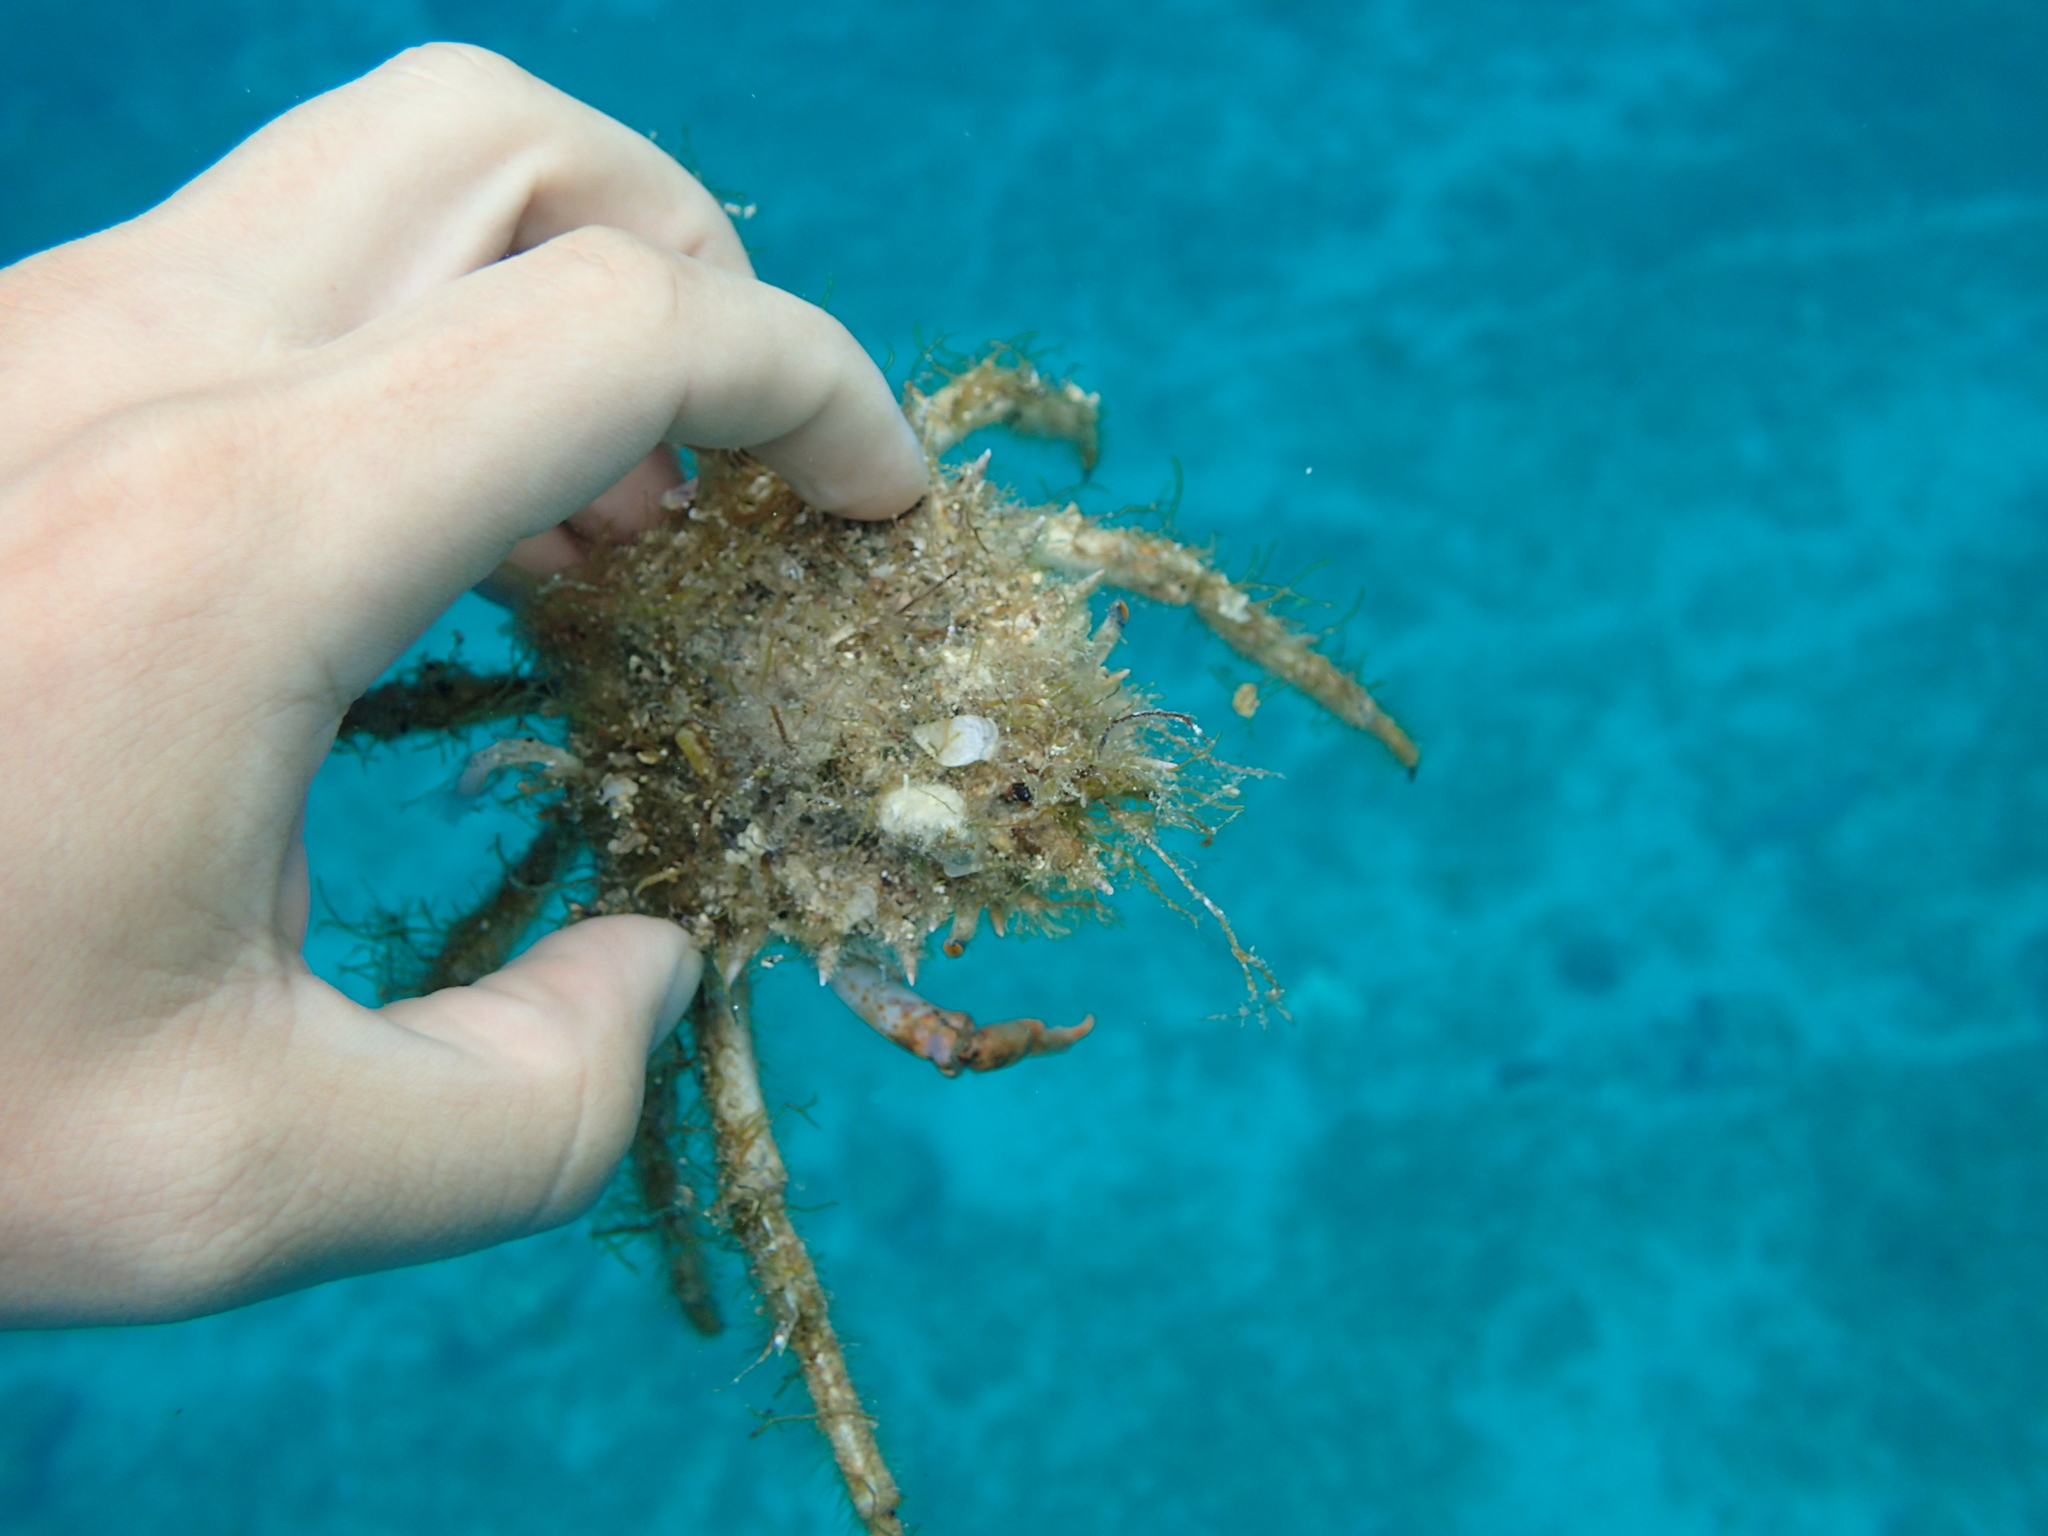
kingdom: Animalia
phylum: Arthropoda
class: Malacostraca
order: Decapoda
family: Majidae
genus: Maja
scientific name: Maja crispata
